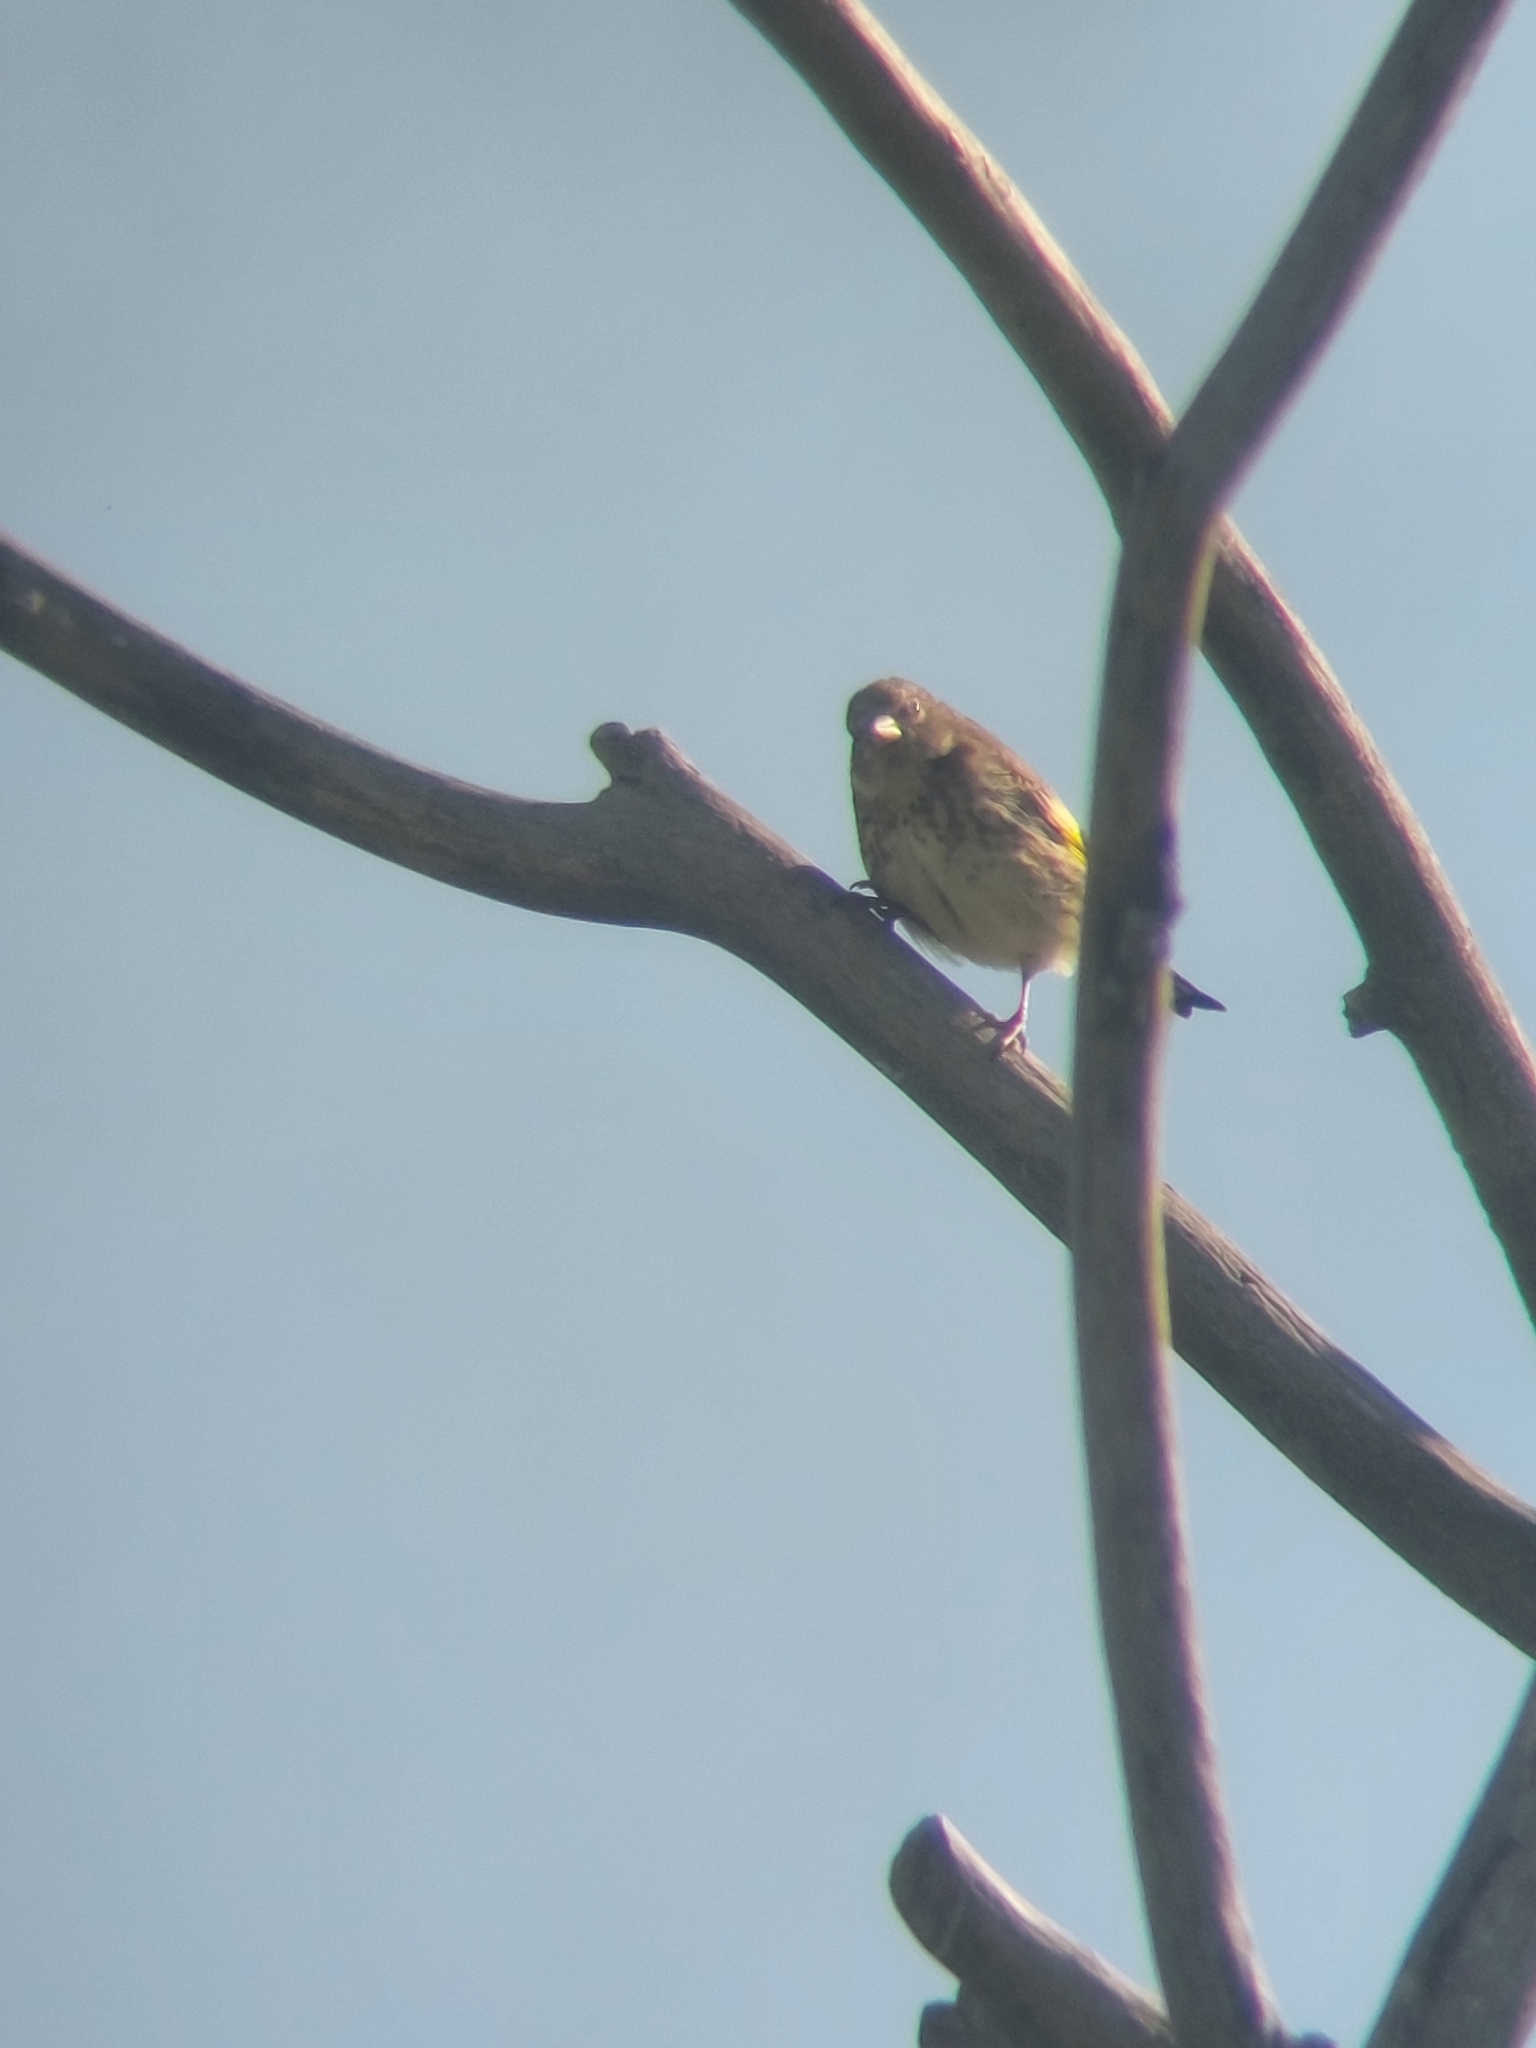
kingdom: Plantae
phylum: Tracheophyta
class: Liliopsida
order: Poales
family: Poaceae
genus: Chloris
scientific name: Chloris chloris
